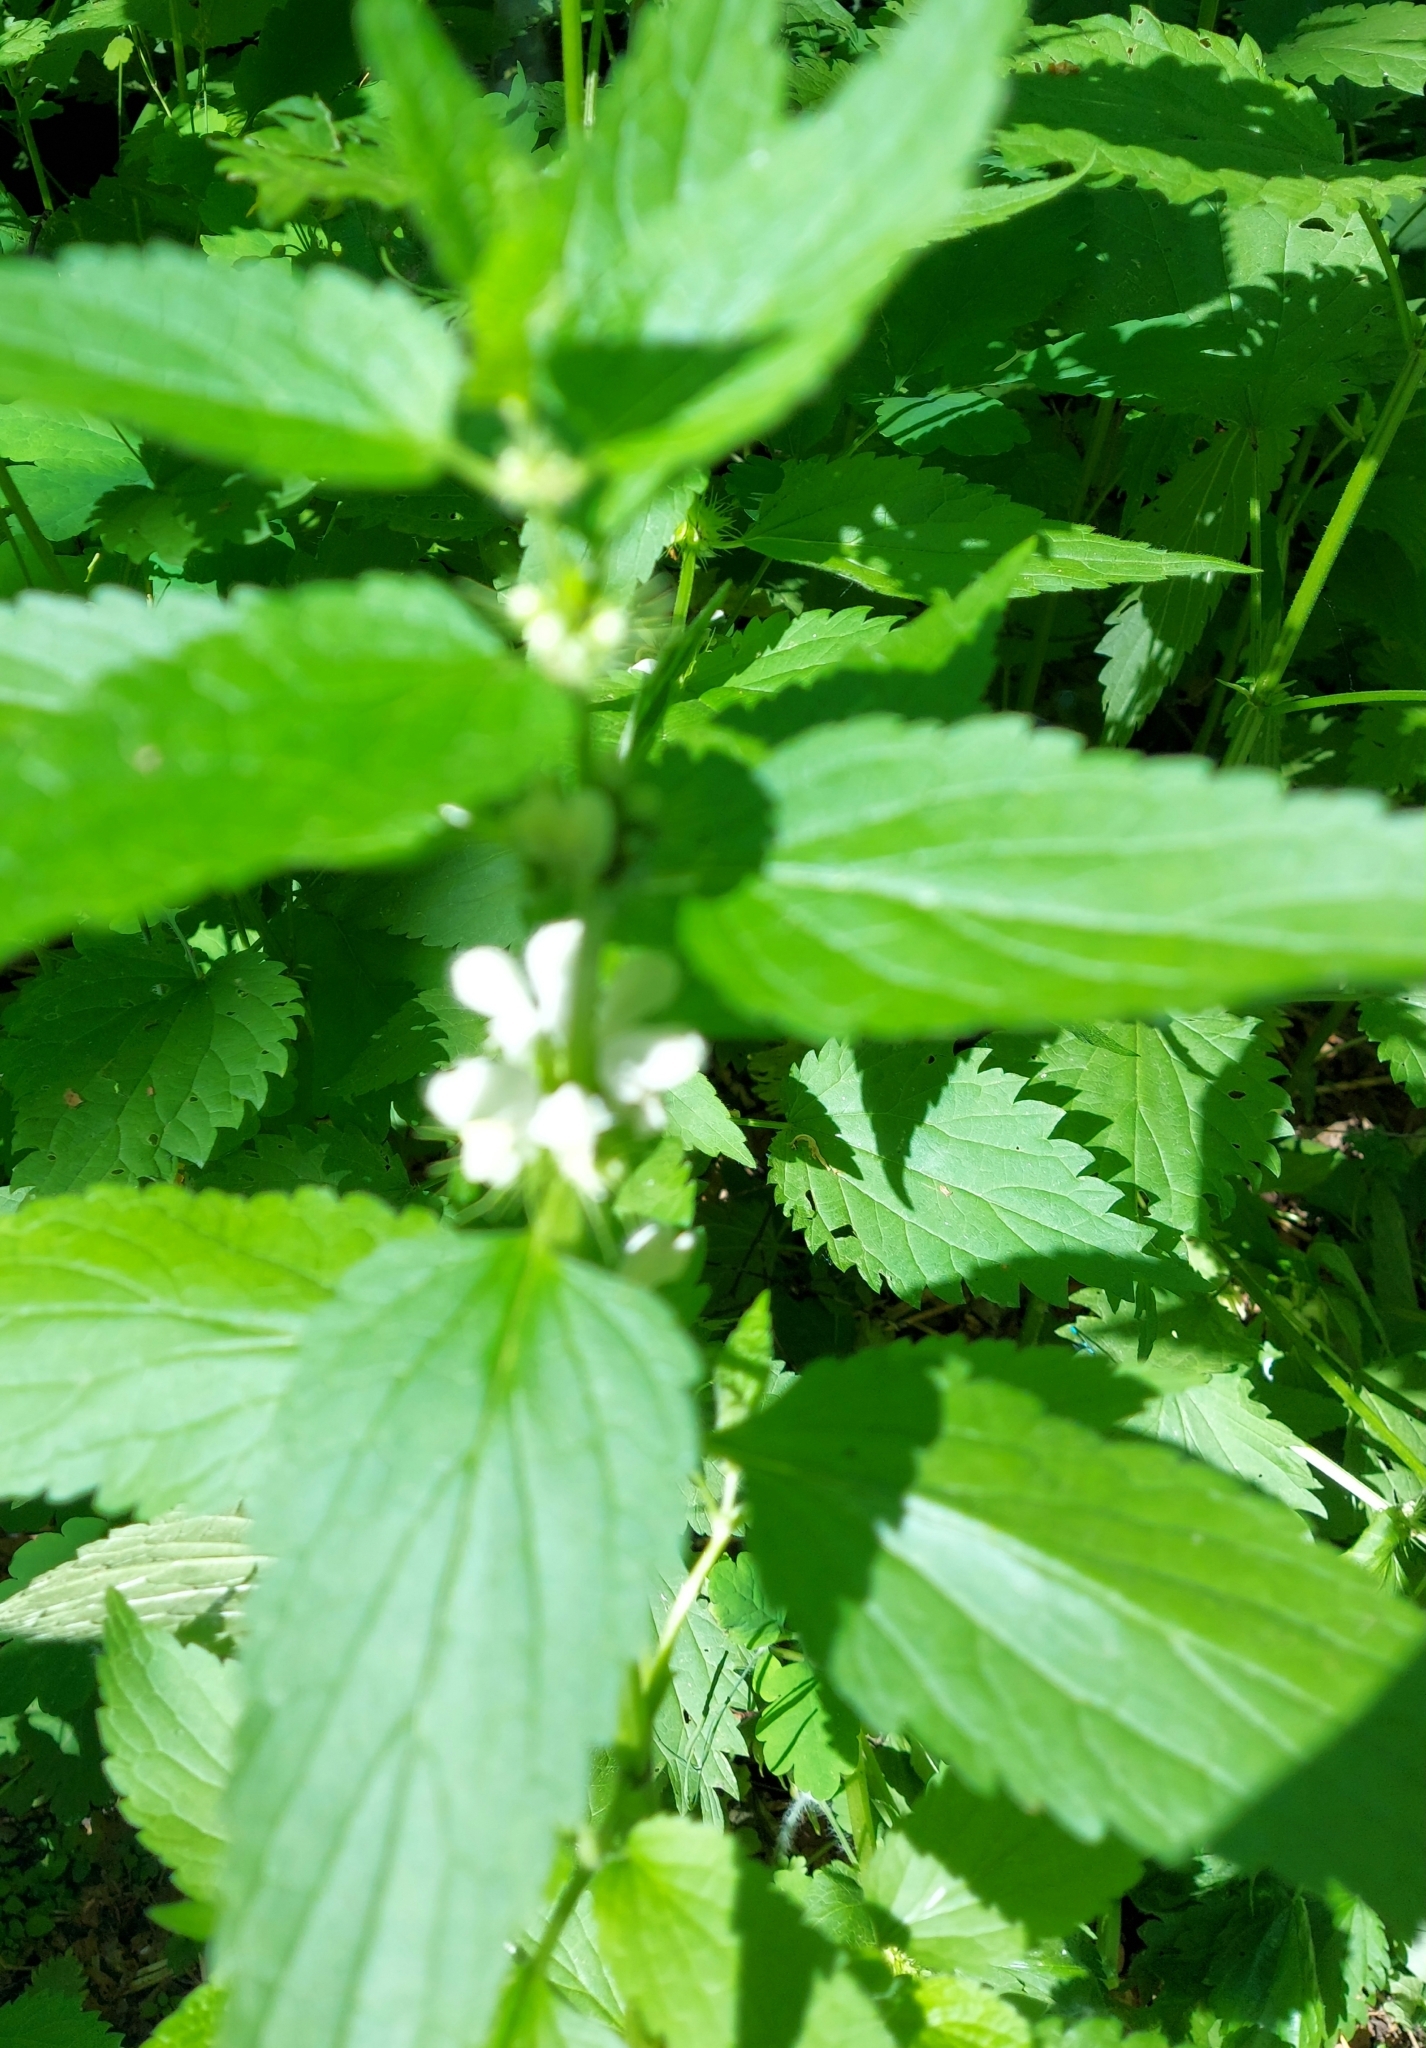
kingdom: Plantae
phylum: Tracheophyta
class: Magnoliopsida
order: Lamiales
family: Lamiaceae
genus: Lamium
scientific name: Lamium album
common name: White dead-nettle
